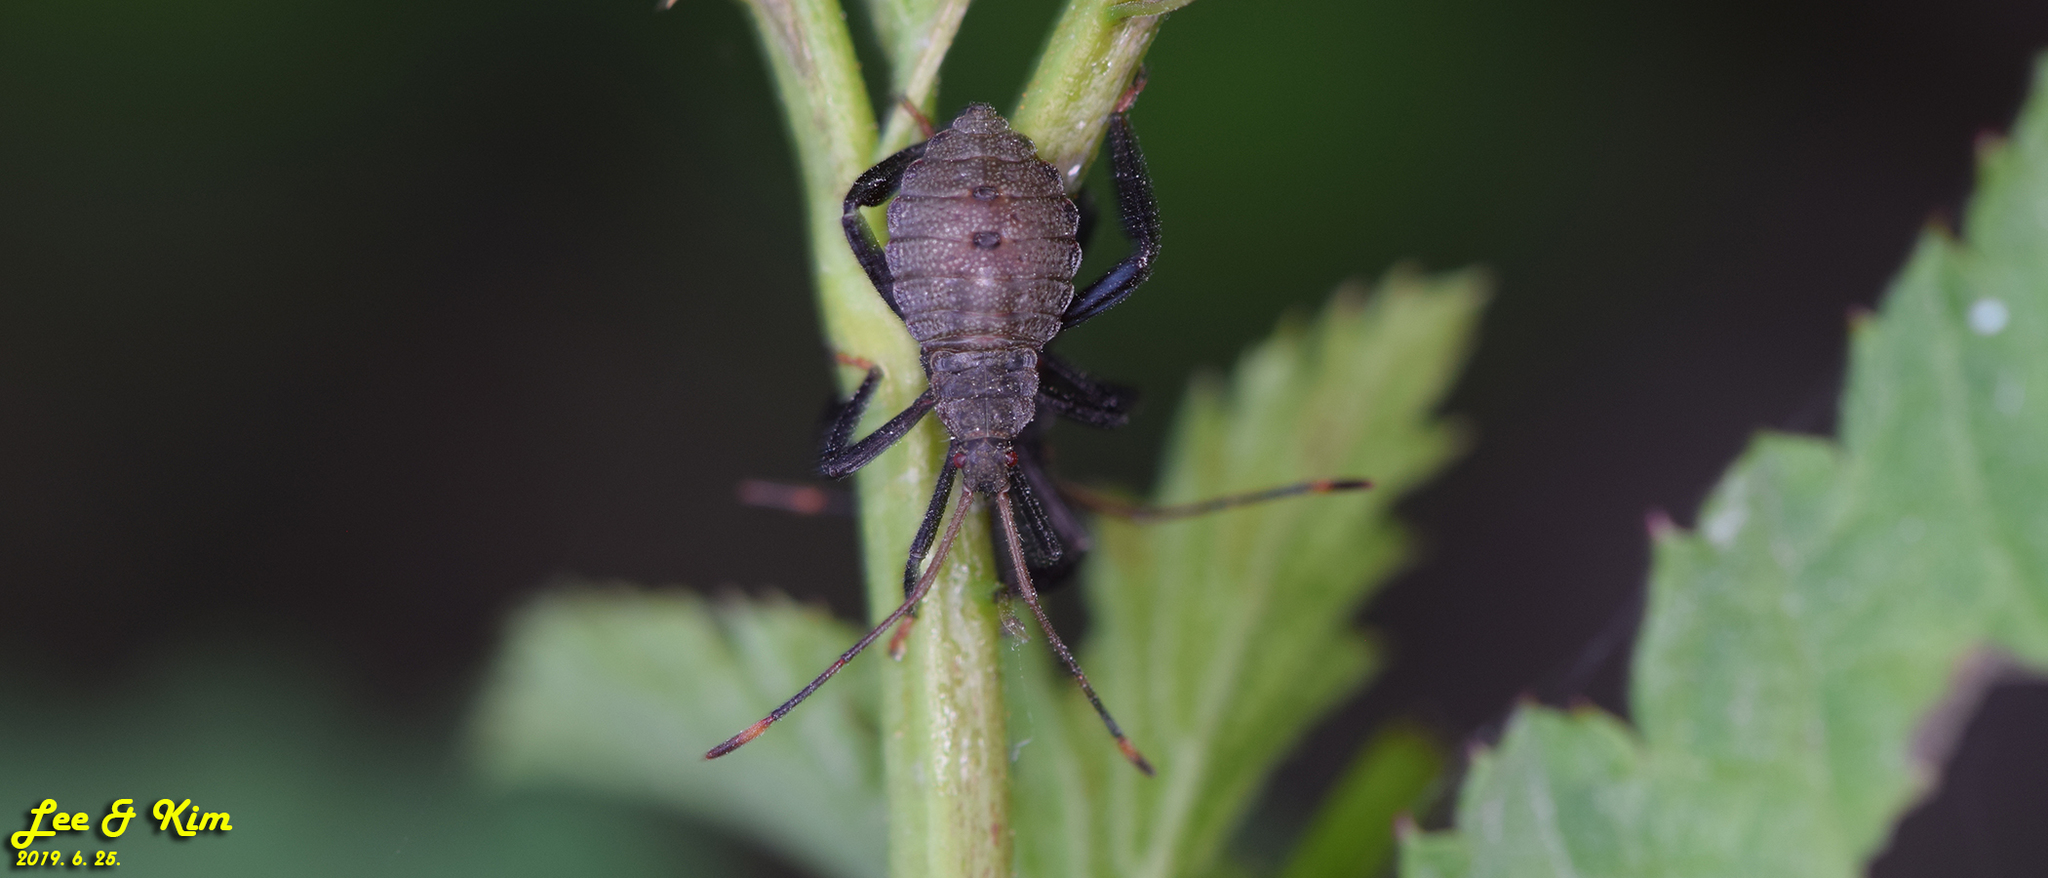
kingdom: Animalia
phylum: Arthropoda
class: Insecta
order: Hemiptera
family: Coreidae
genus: Molipteryx
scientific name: Molipteryx fuliginosa
